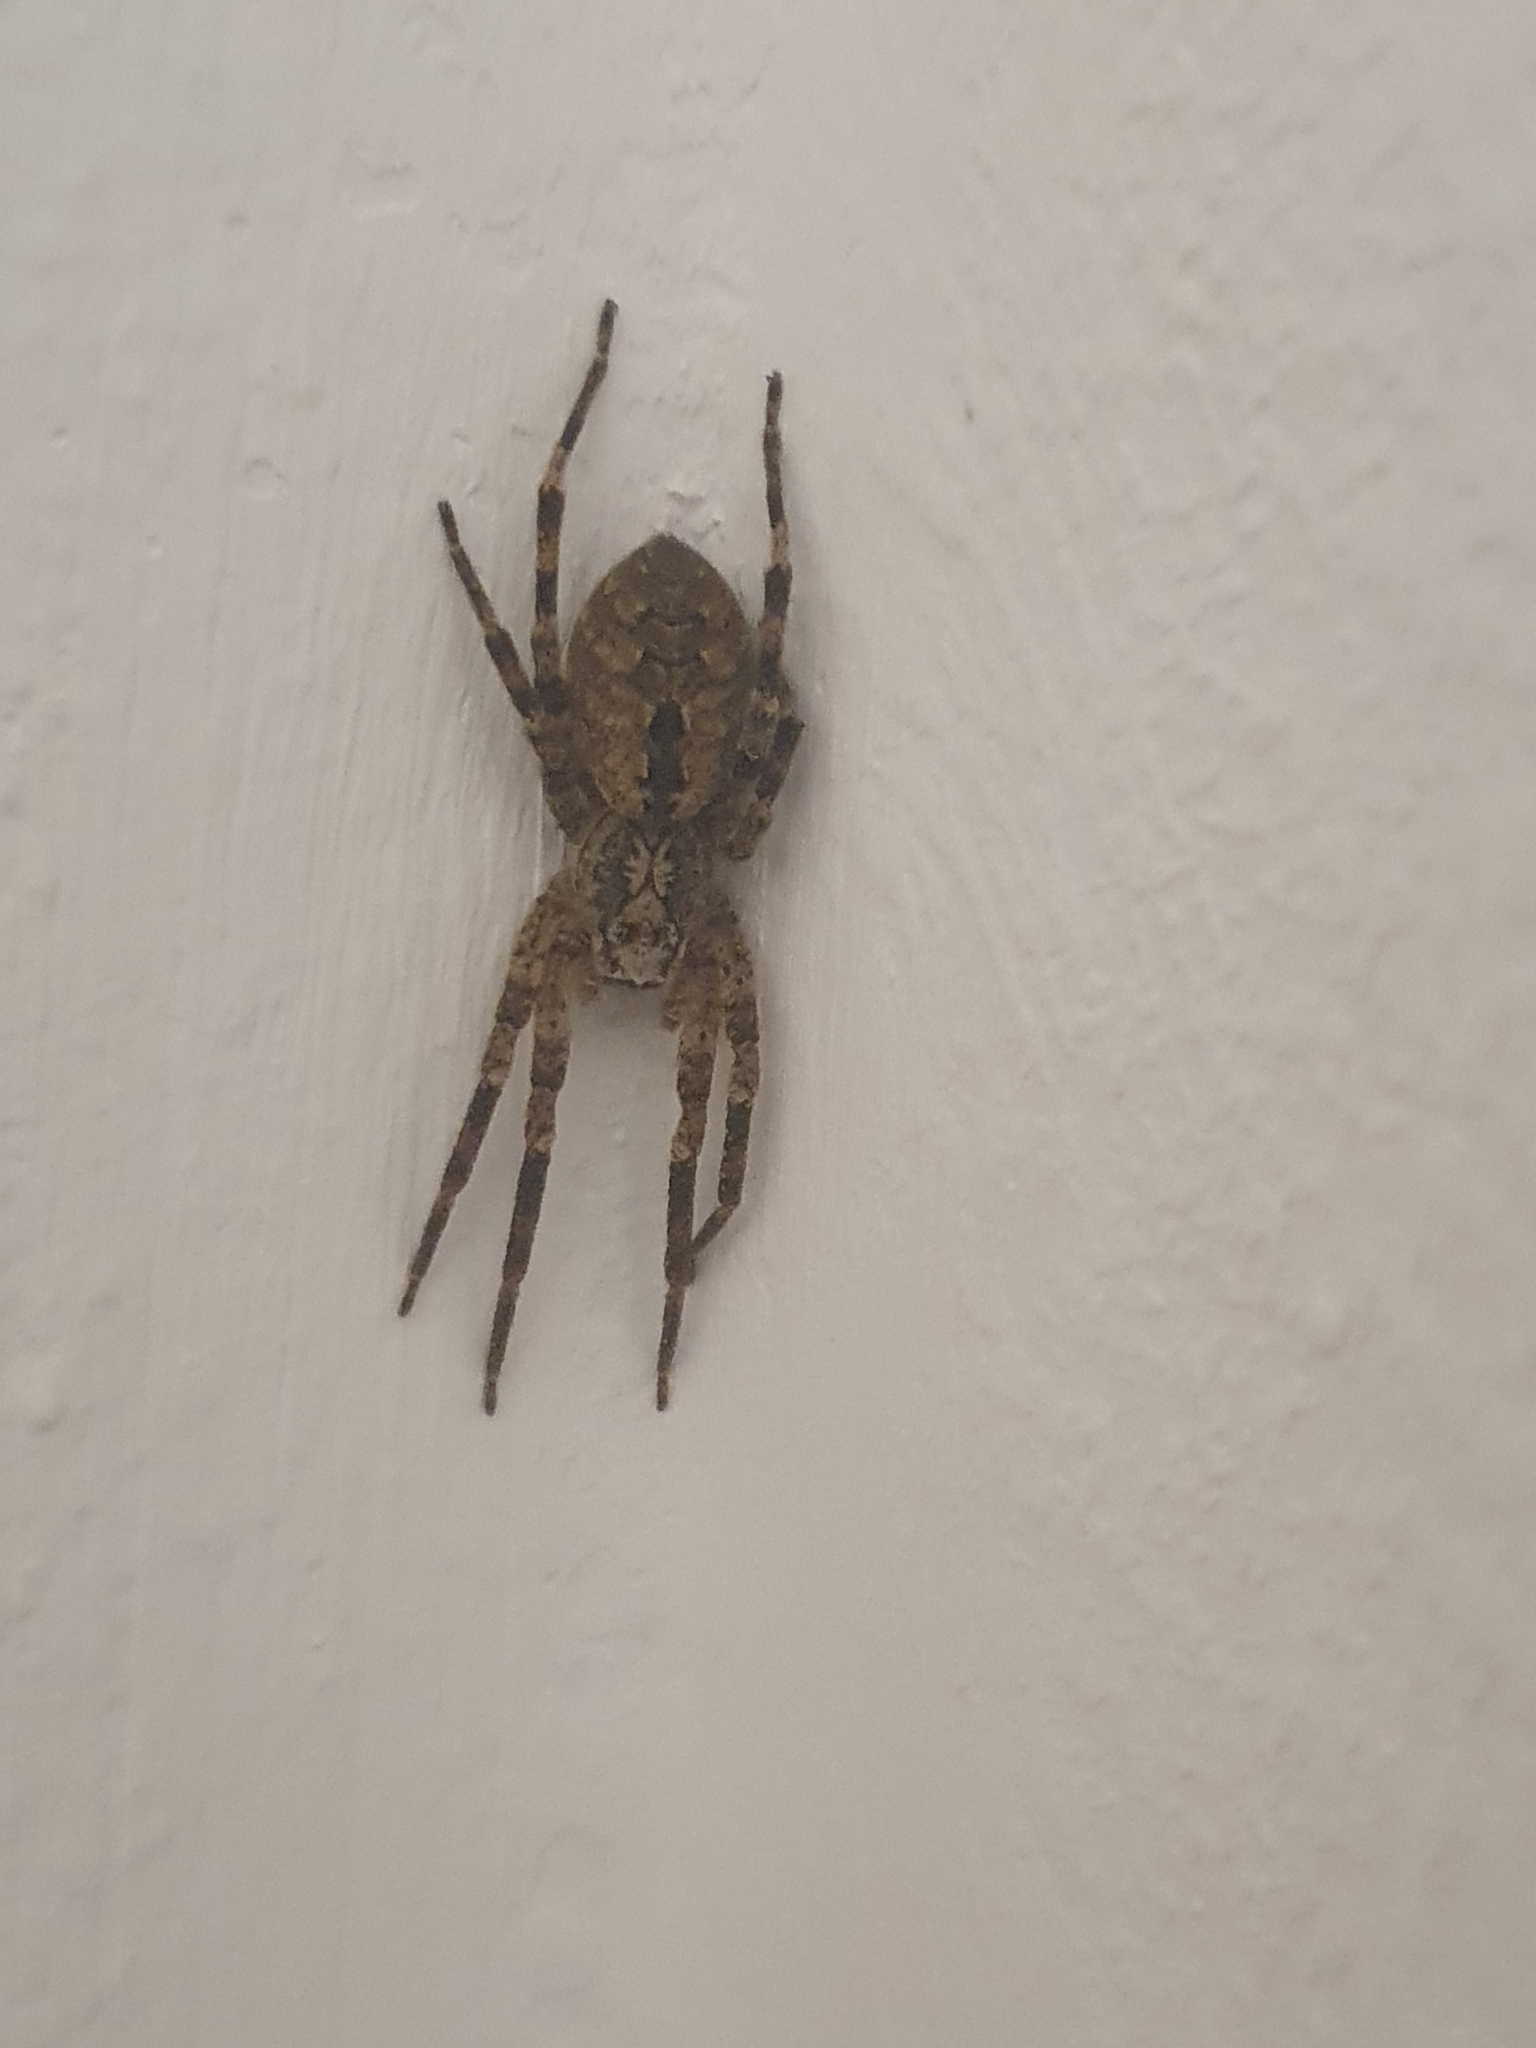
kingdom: Animalia
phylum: Arthropoda
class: Arachnida
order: Araneae
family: Zoropsidae
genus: Zoropsis
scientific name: Zoropsis spinimana
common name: Zoropsid spider
